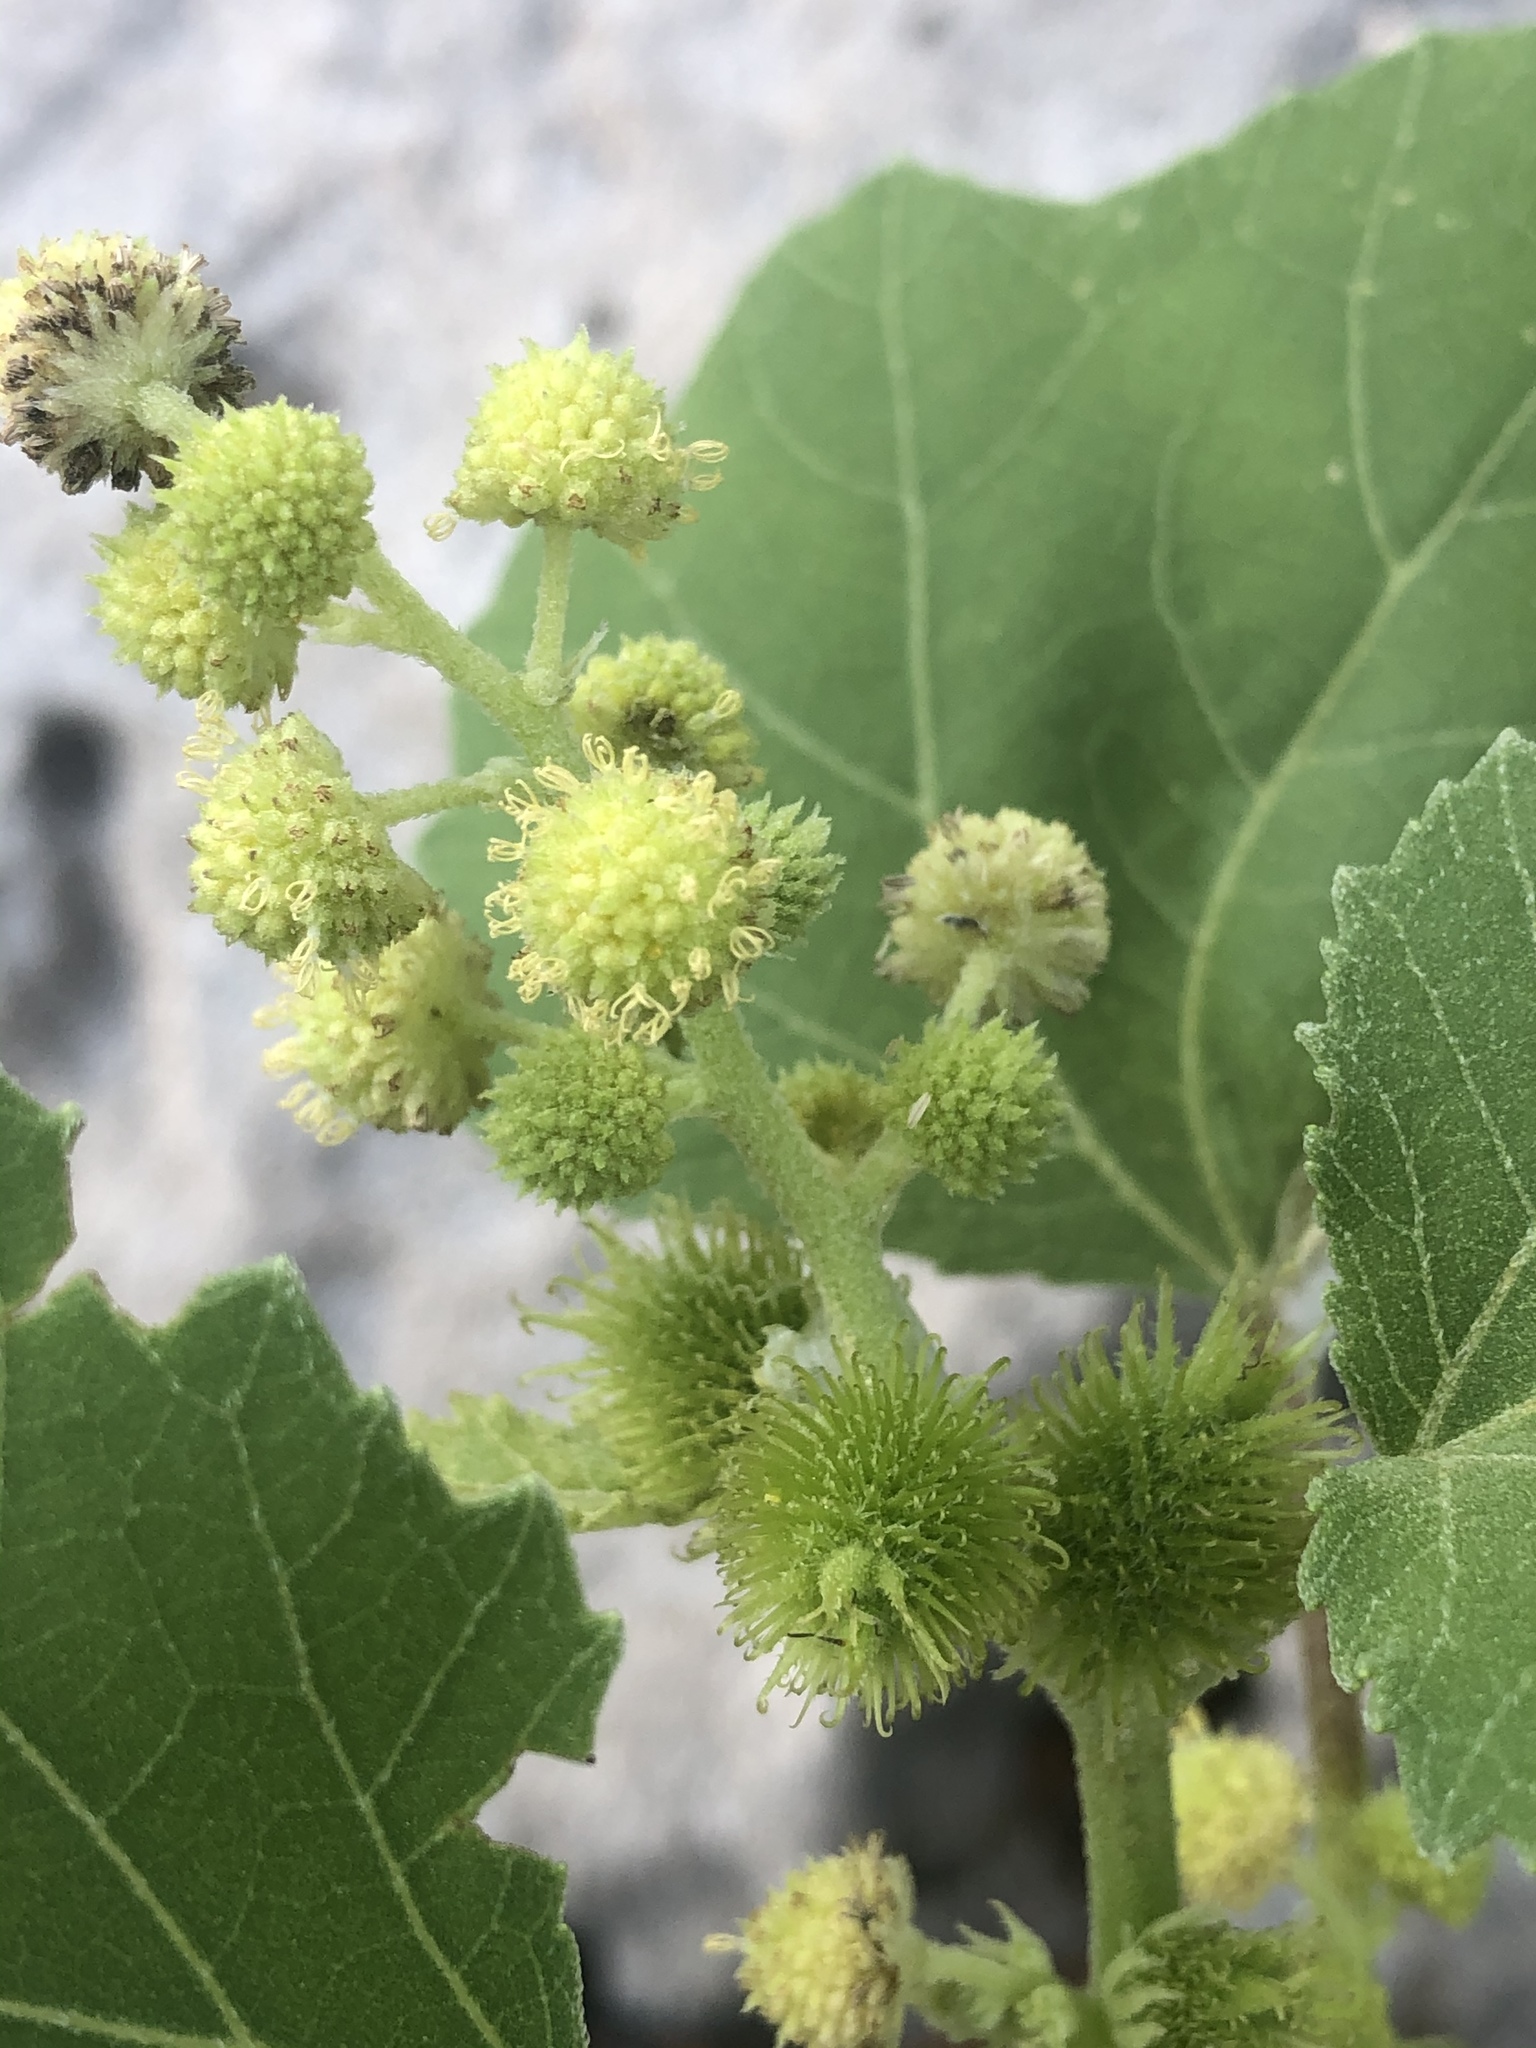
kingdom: Plantae
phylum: Tracheophyta
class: Magnoliopsida
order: Asterales
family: Asteraceae
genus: Xanthium
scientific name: Xanthium strumarium
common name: Rough cocklebur
